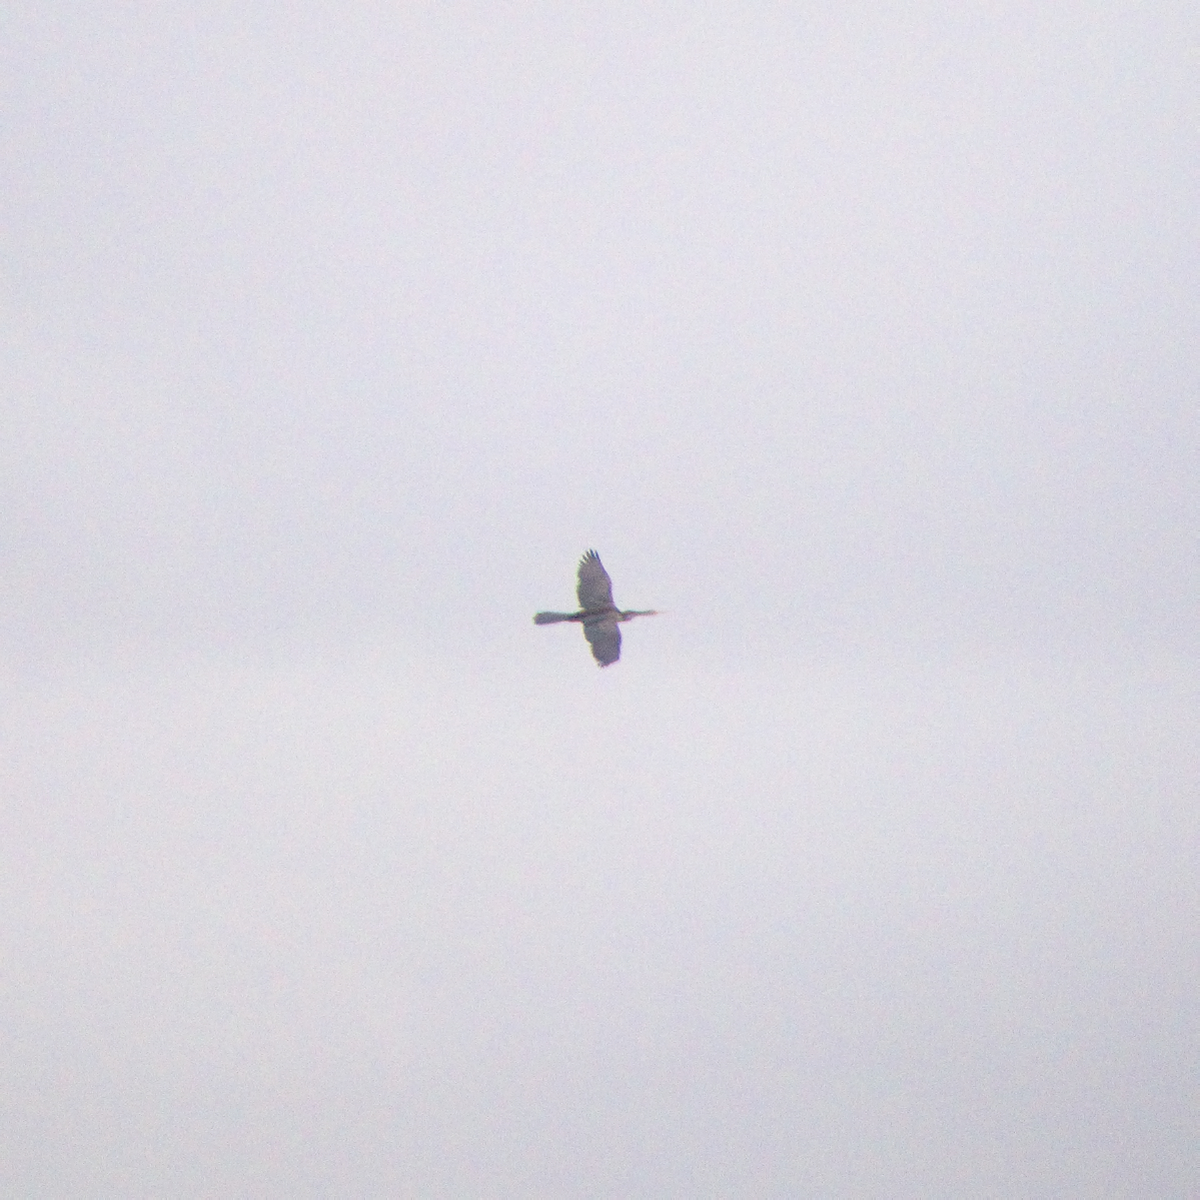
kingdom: Animalia
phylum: Chordata
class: Aves
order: Suliformes
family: Anhingidae
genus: Anhinga
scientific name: Anhinga novaehollandiae
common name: Australasian darter
